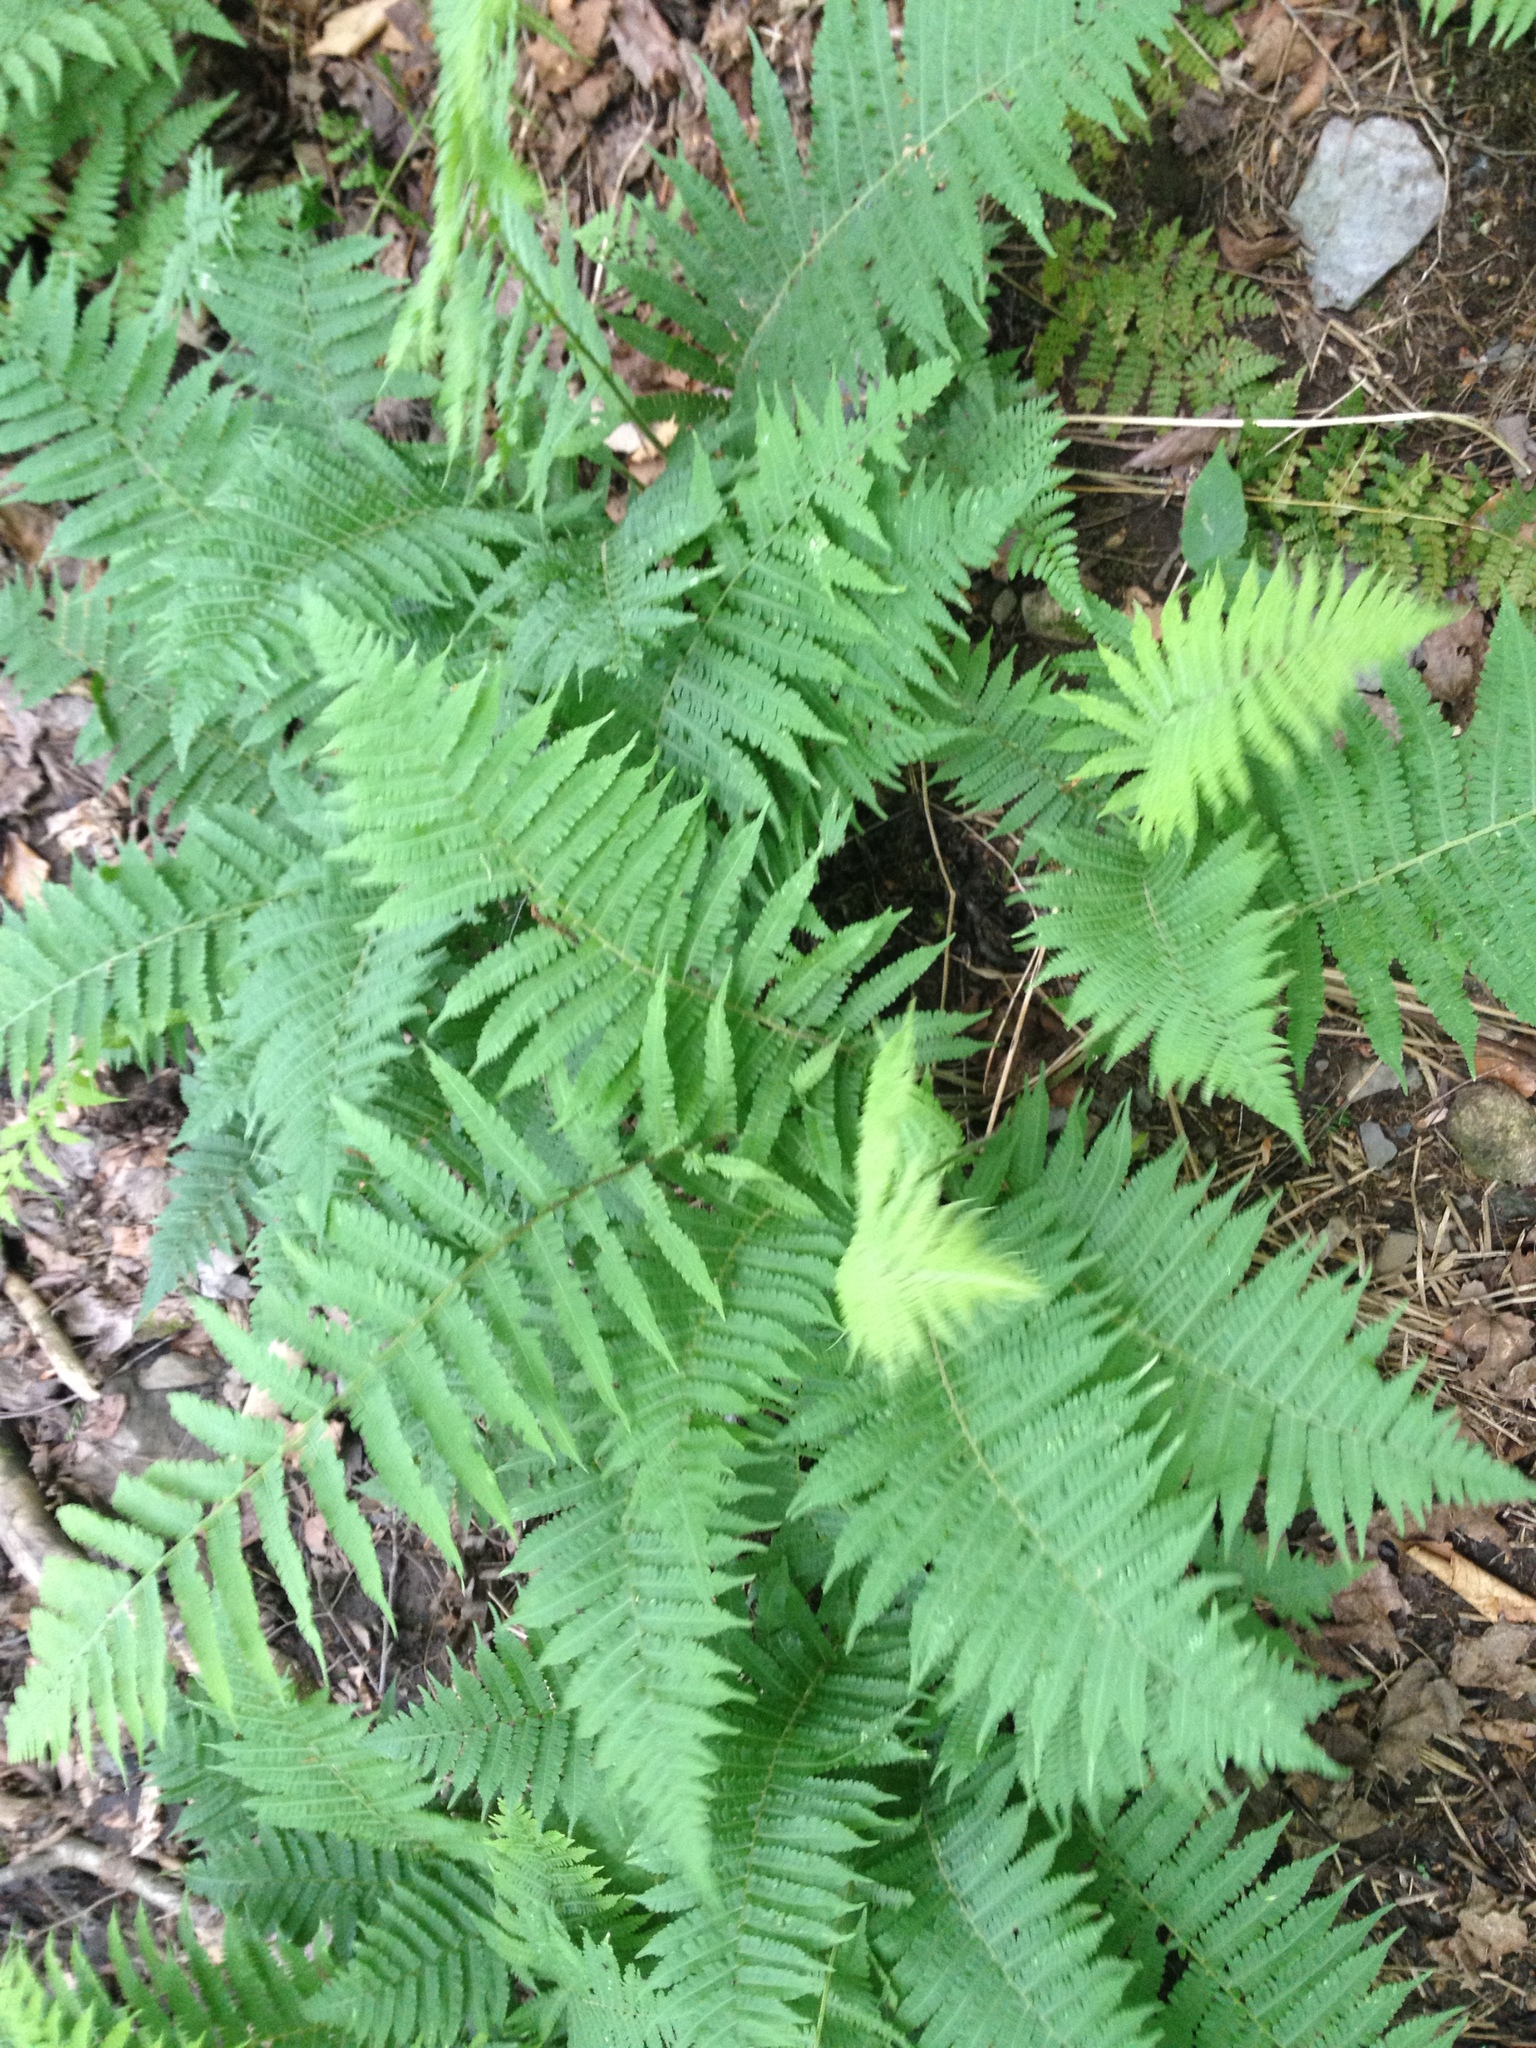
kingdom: Plantae
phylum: Tracheophyta
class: Polypodiopsida
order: Polypodiales
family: Athyriaceae
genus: Deparia
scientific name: Deparia acrostichoides
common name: Silver false spleenwort
